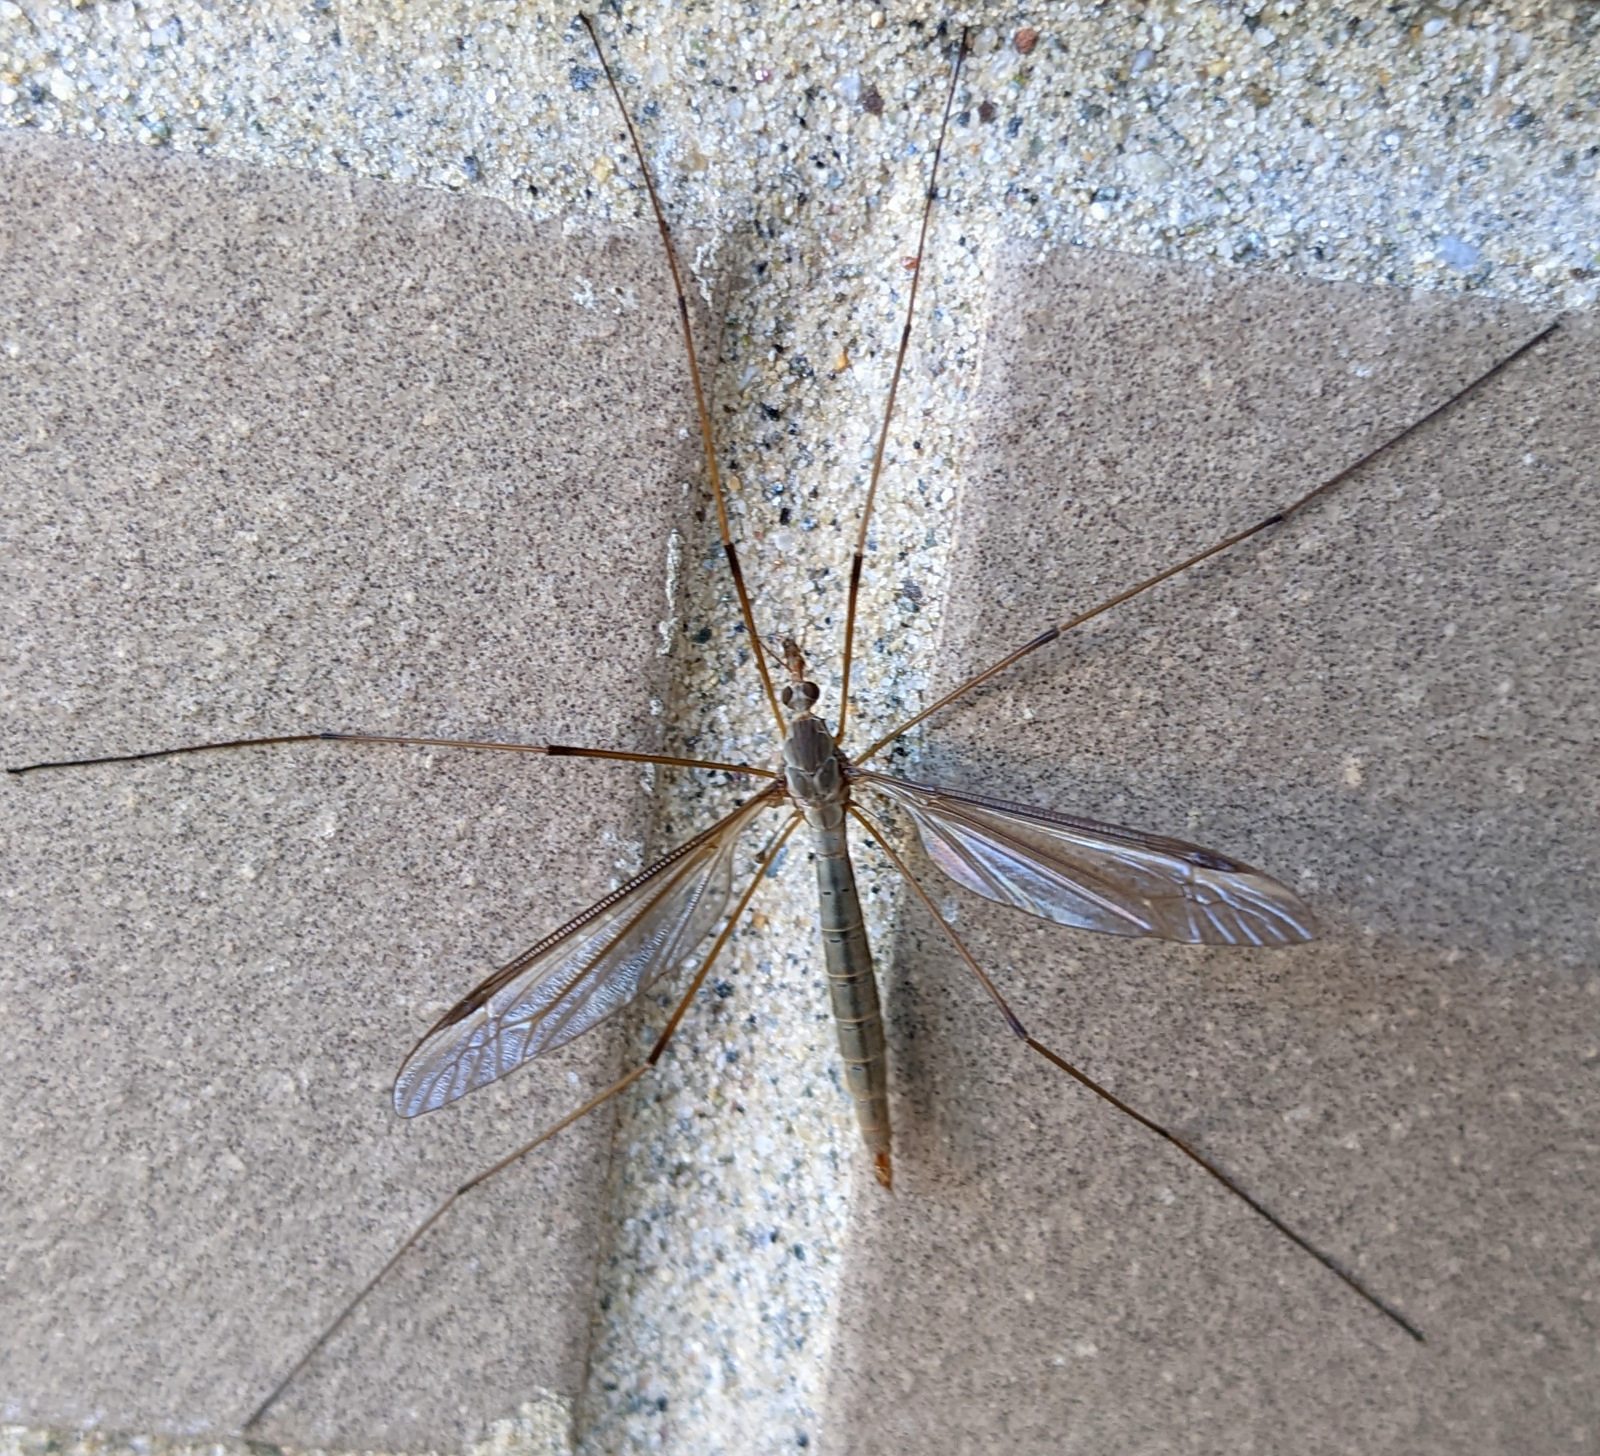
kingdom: Animalia
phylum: Arthropoda
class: Insecta
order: Diptera
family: Tipulidae
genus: Tipula
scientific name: Tipula oleracea
